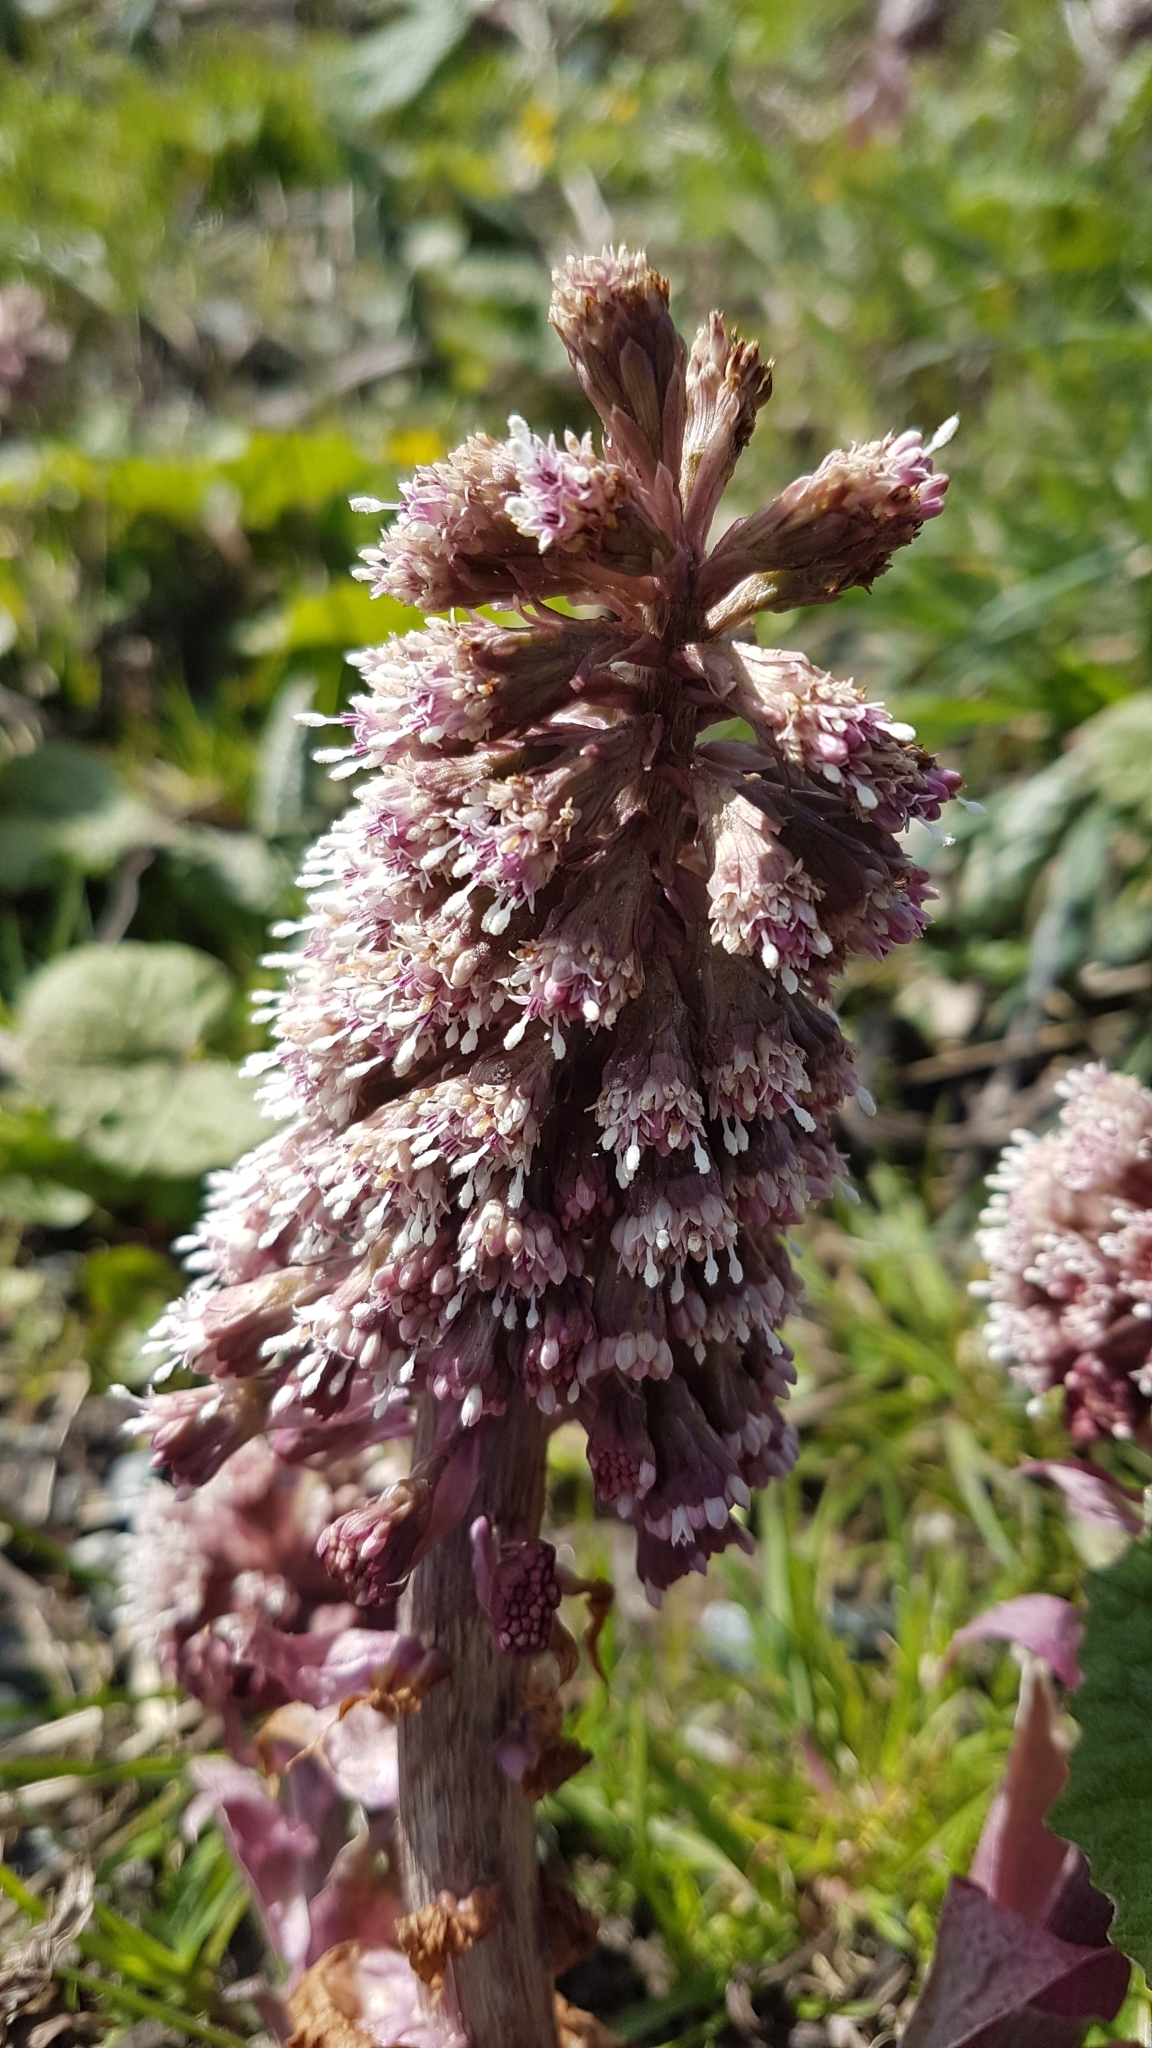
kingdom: Plantae
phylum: Tracheophyta
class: Magnoliopsida
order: Asterales
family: Asteraceae
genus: Petasites
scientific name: Petasites hybridus
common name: Butterbur
